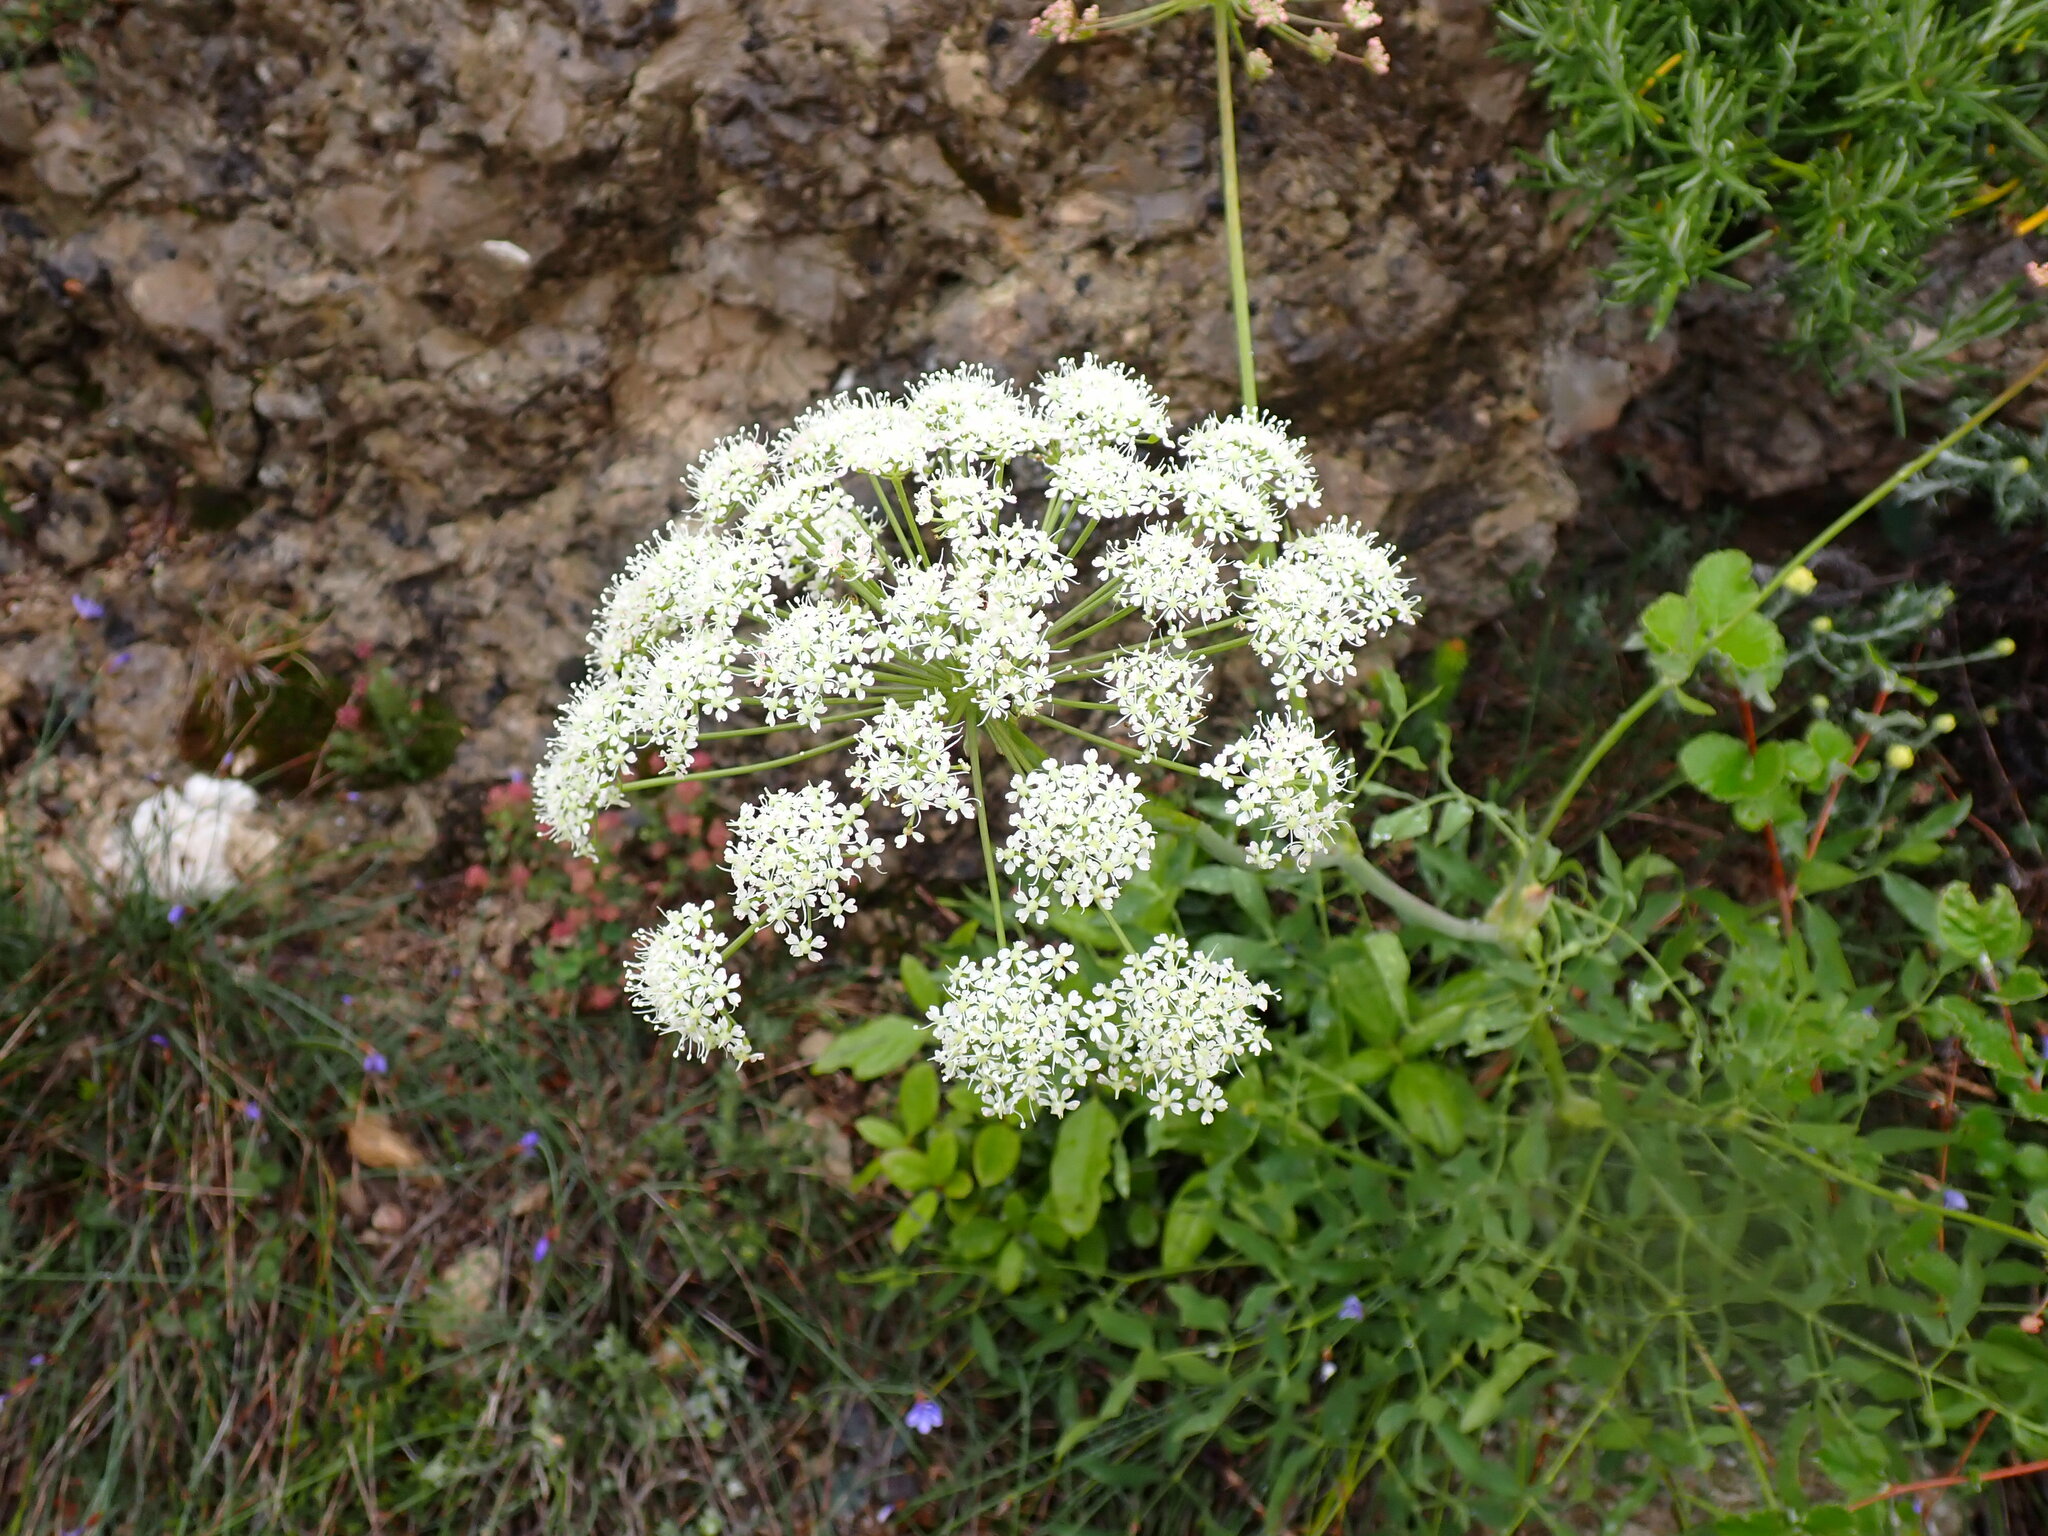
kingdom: Plantae
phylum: Tracheophyta
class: Magnoliopsida
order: Apiales
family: Apiaceae
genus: Siler
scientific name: Siler montanum
